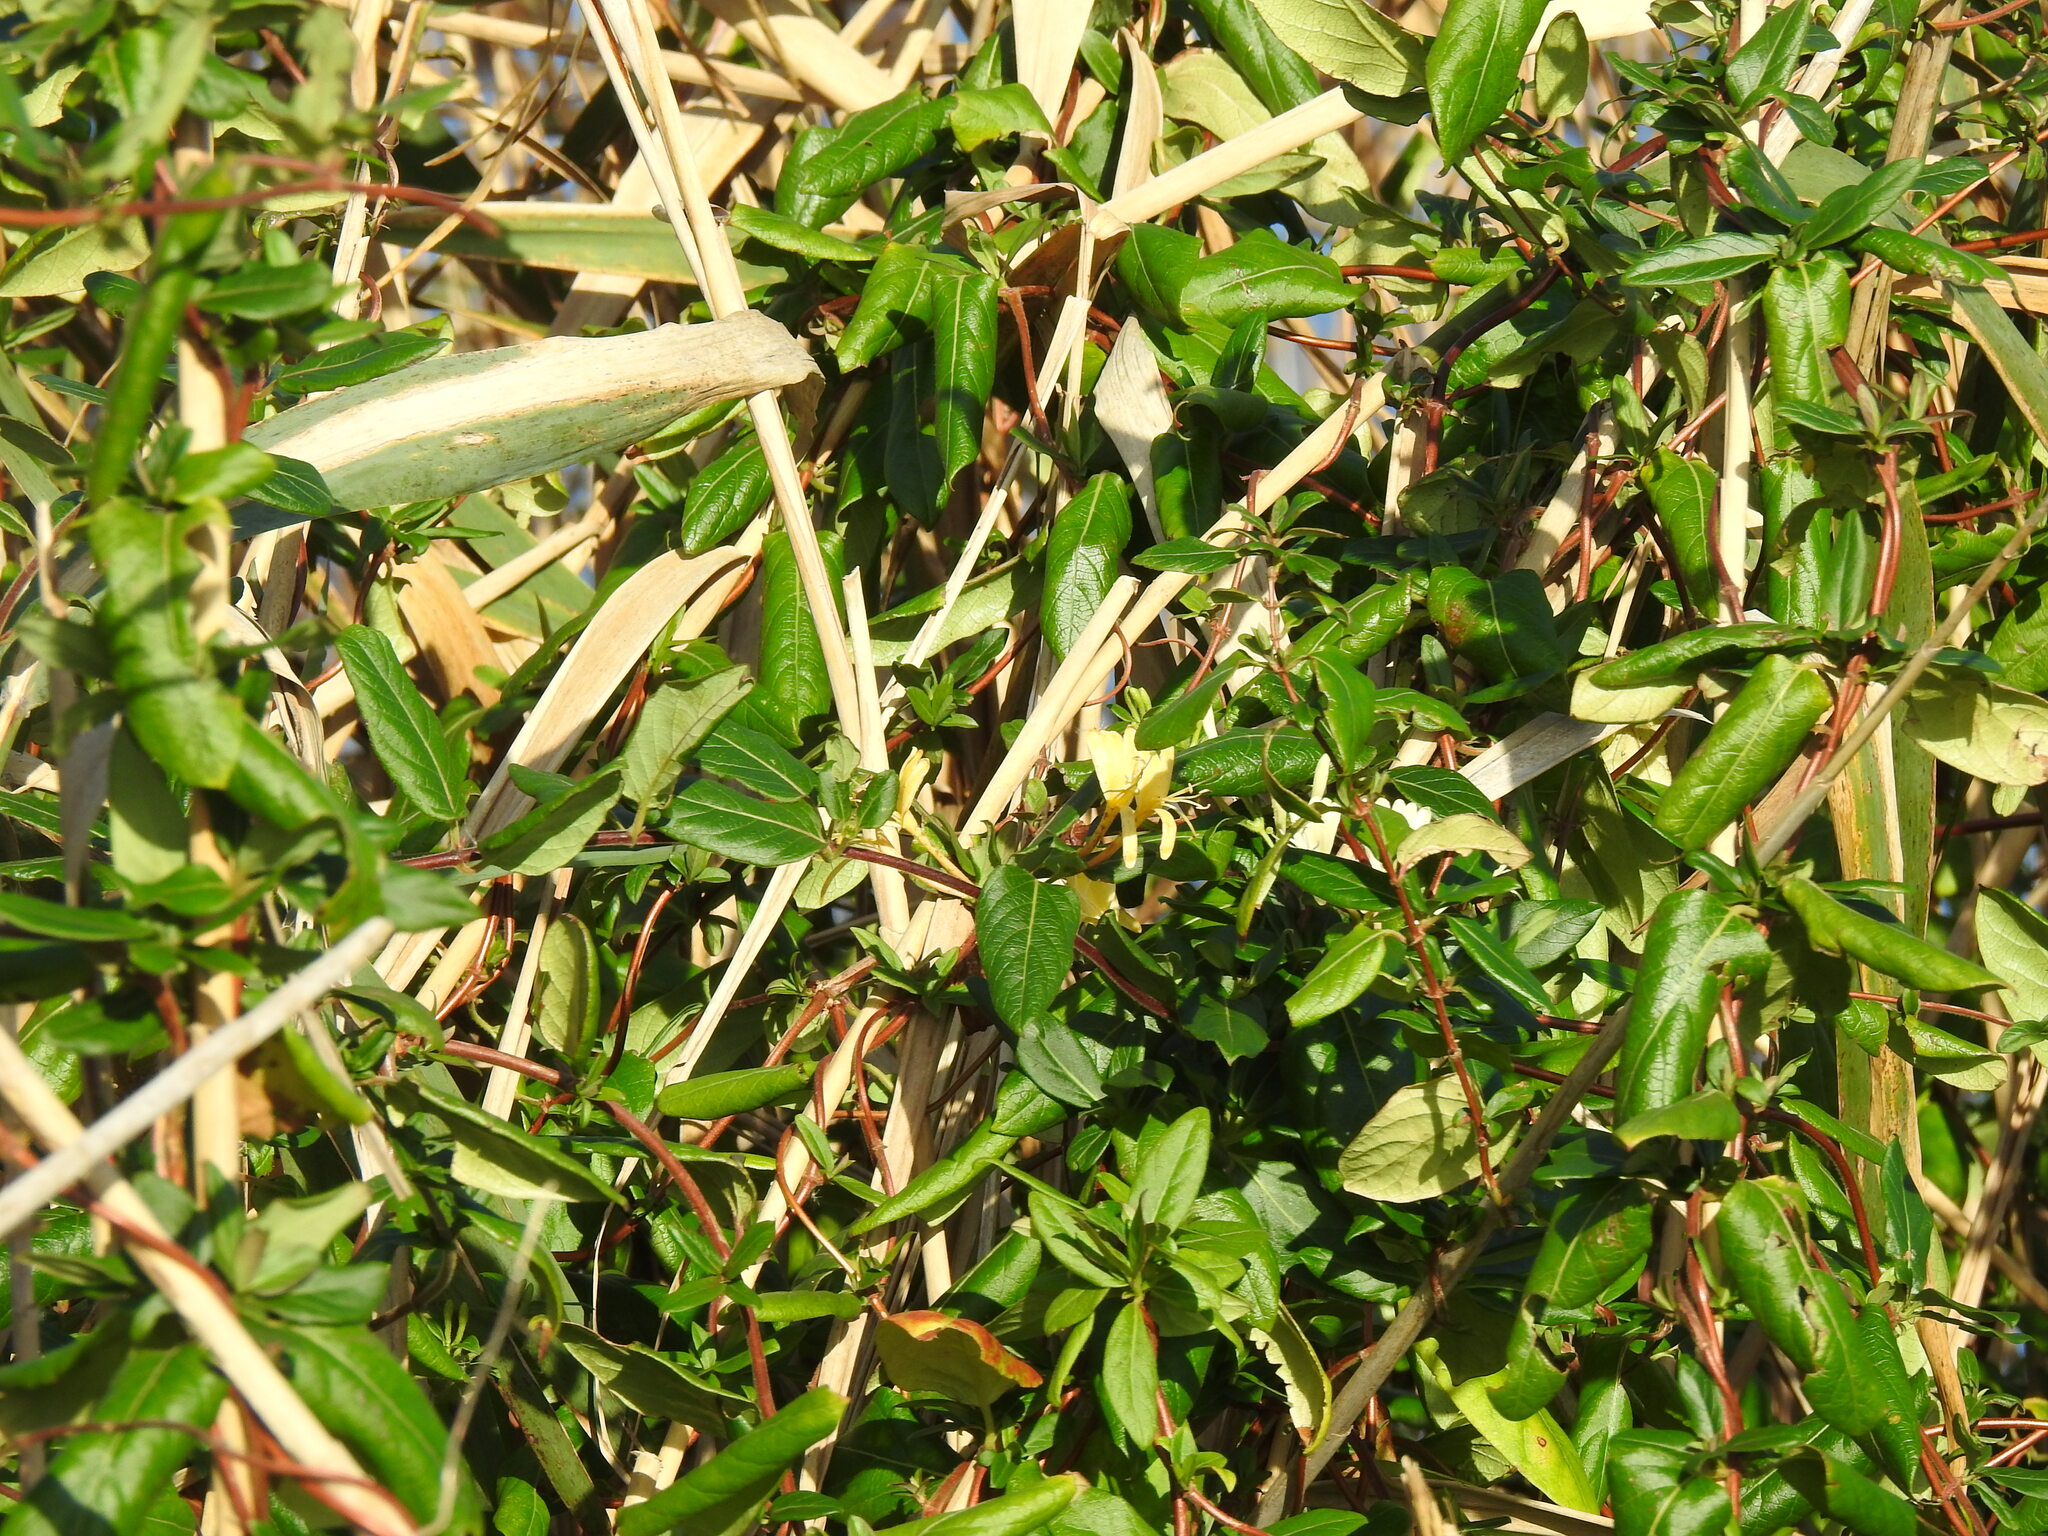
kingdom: Plantae
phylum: Tracheophyta
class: Magnoliopsida
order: Dipsacales
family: Caprifoliaceae
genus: Lonicera
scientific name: Lonicera japonica
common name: Japanese honeysuckle
